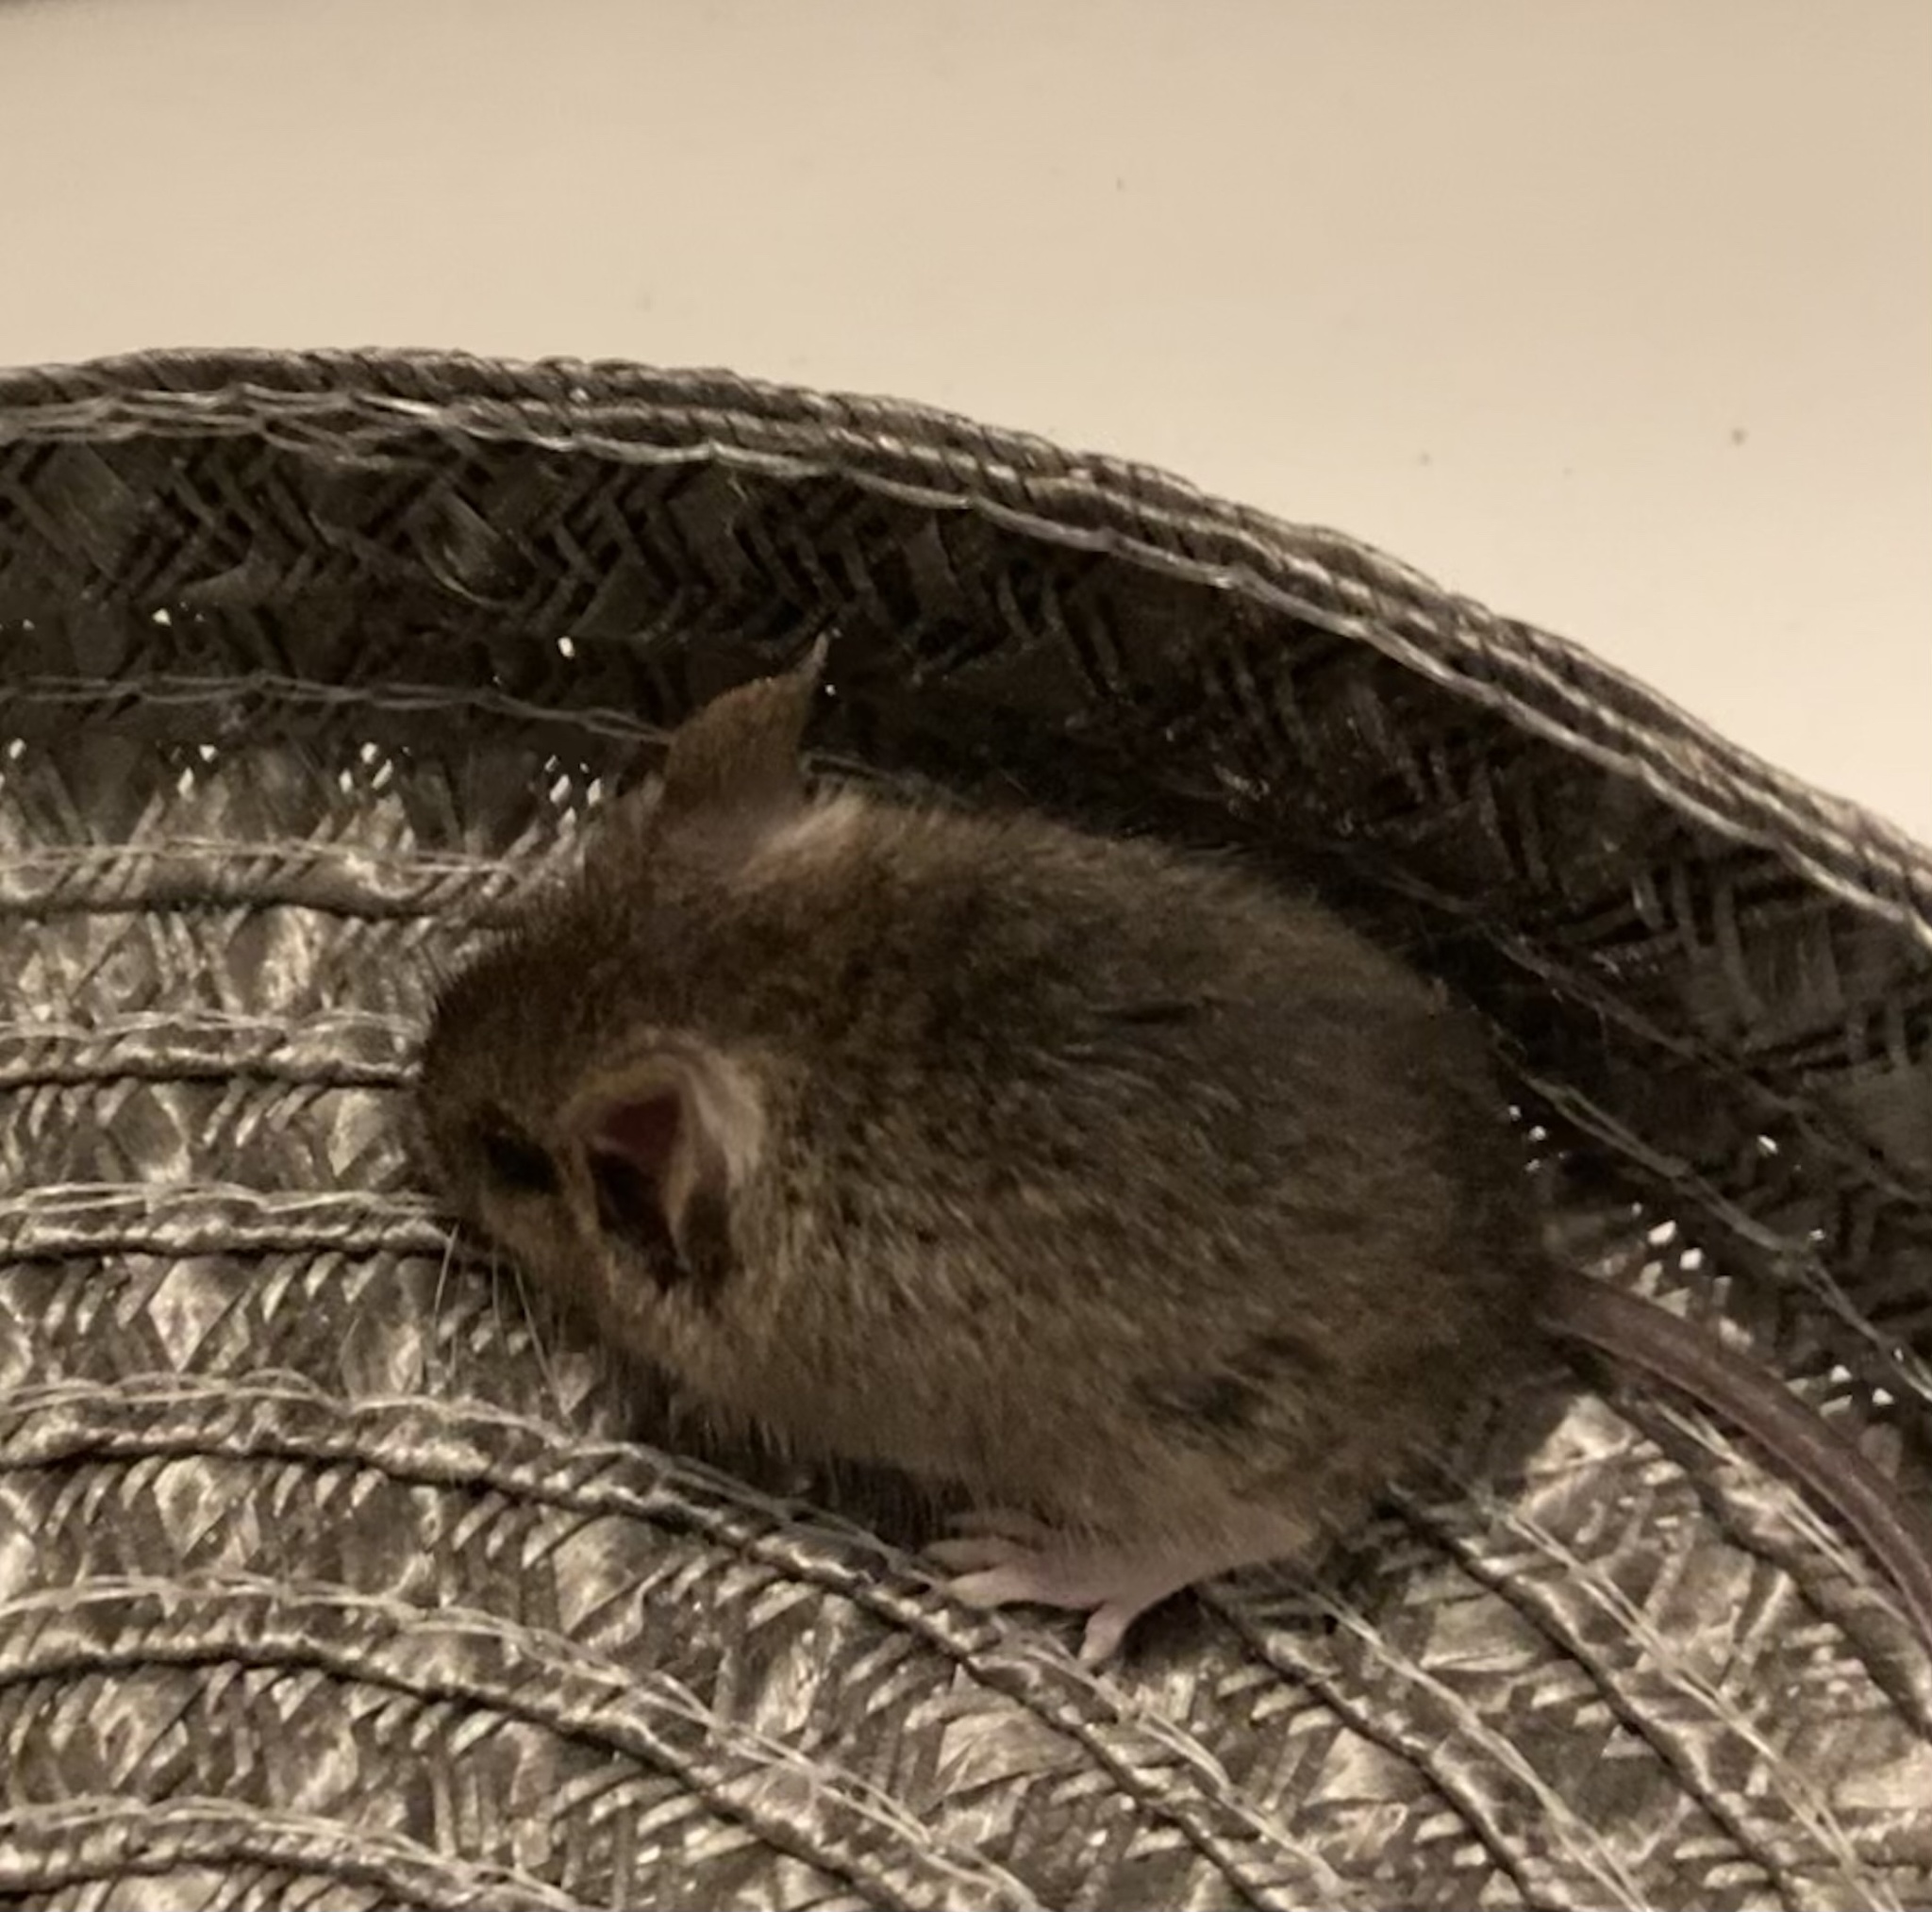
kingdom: Animalia
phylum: Chordata
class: Mammalia
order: Rodentia
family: Muridae
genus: Mus
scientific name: Mus musculus
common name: House mouse
